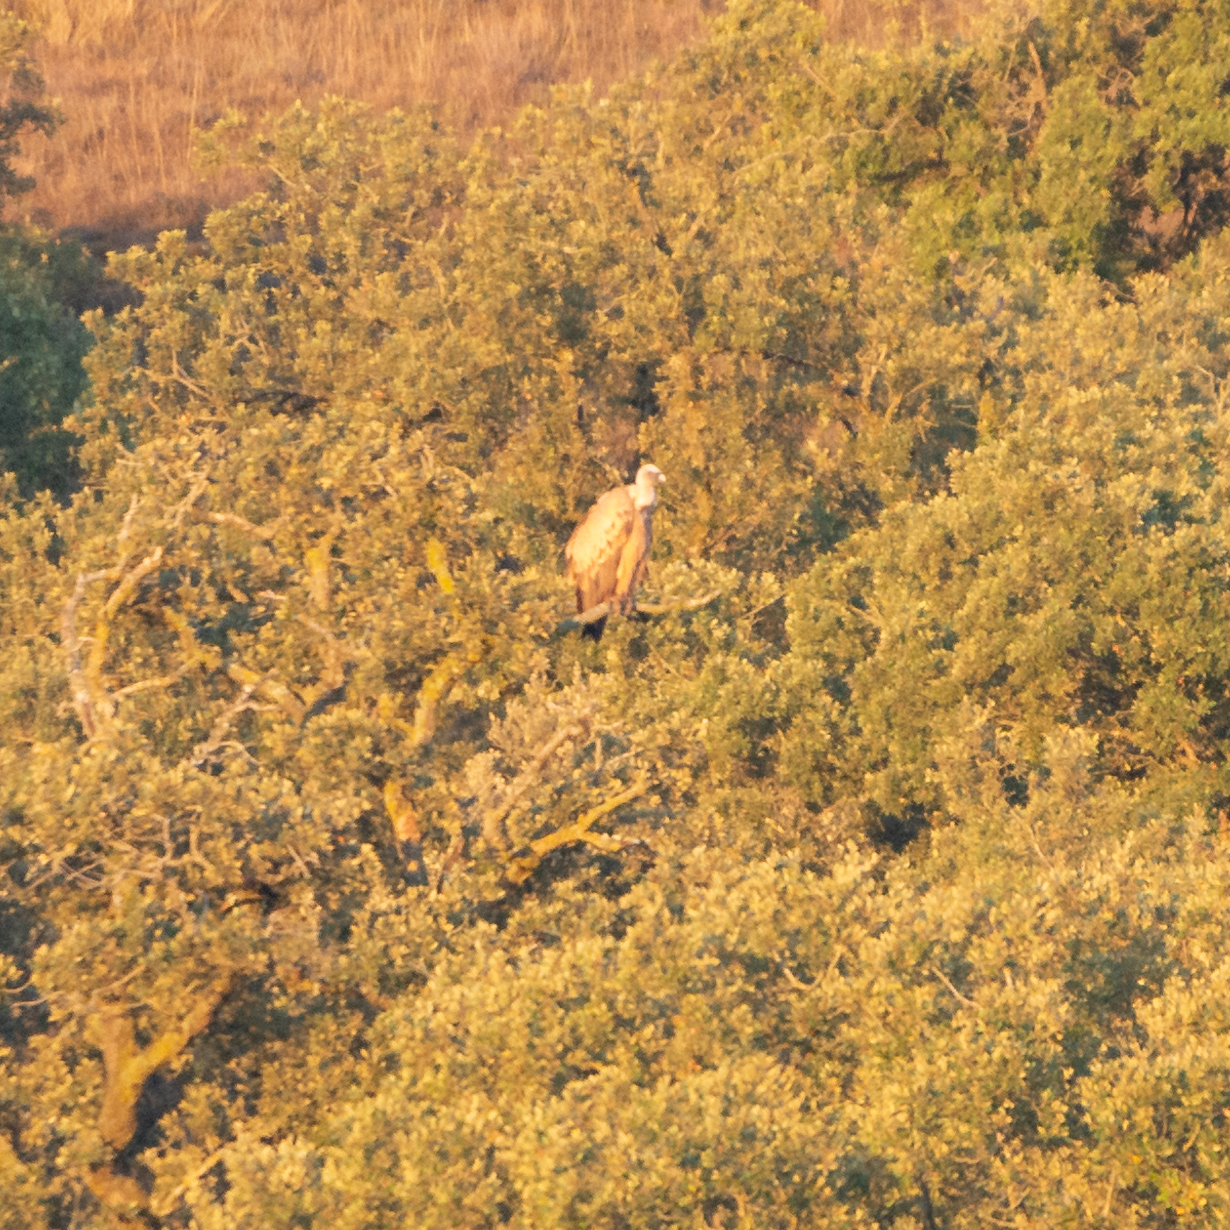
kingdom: Animalia
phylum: Chordata
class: Aves
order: Accipitriformes
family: Accipitridae
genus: Gyps
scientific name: Gyps fulvus
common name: Griffon vulture
